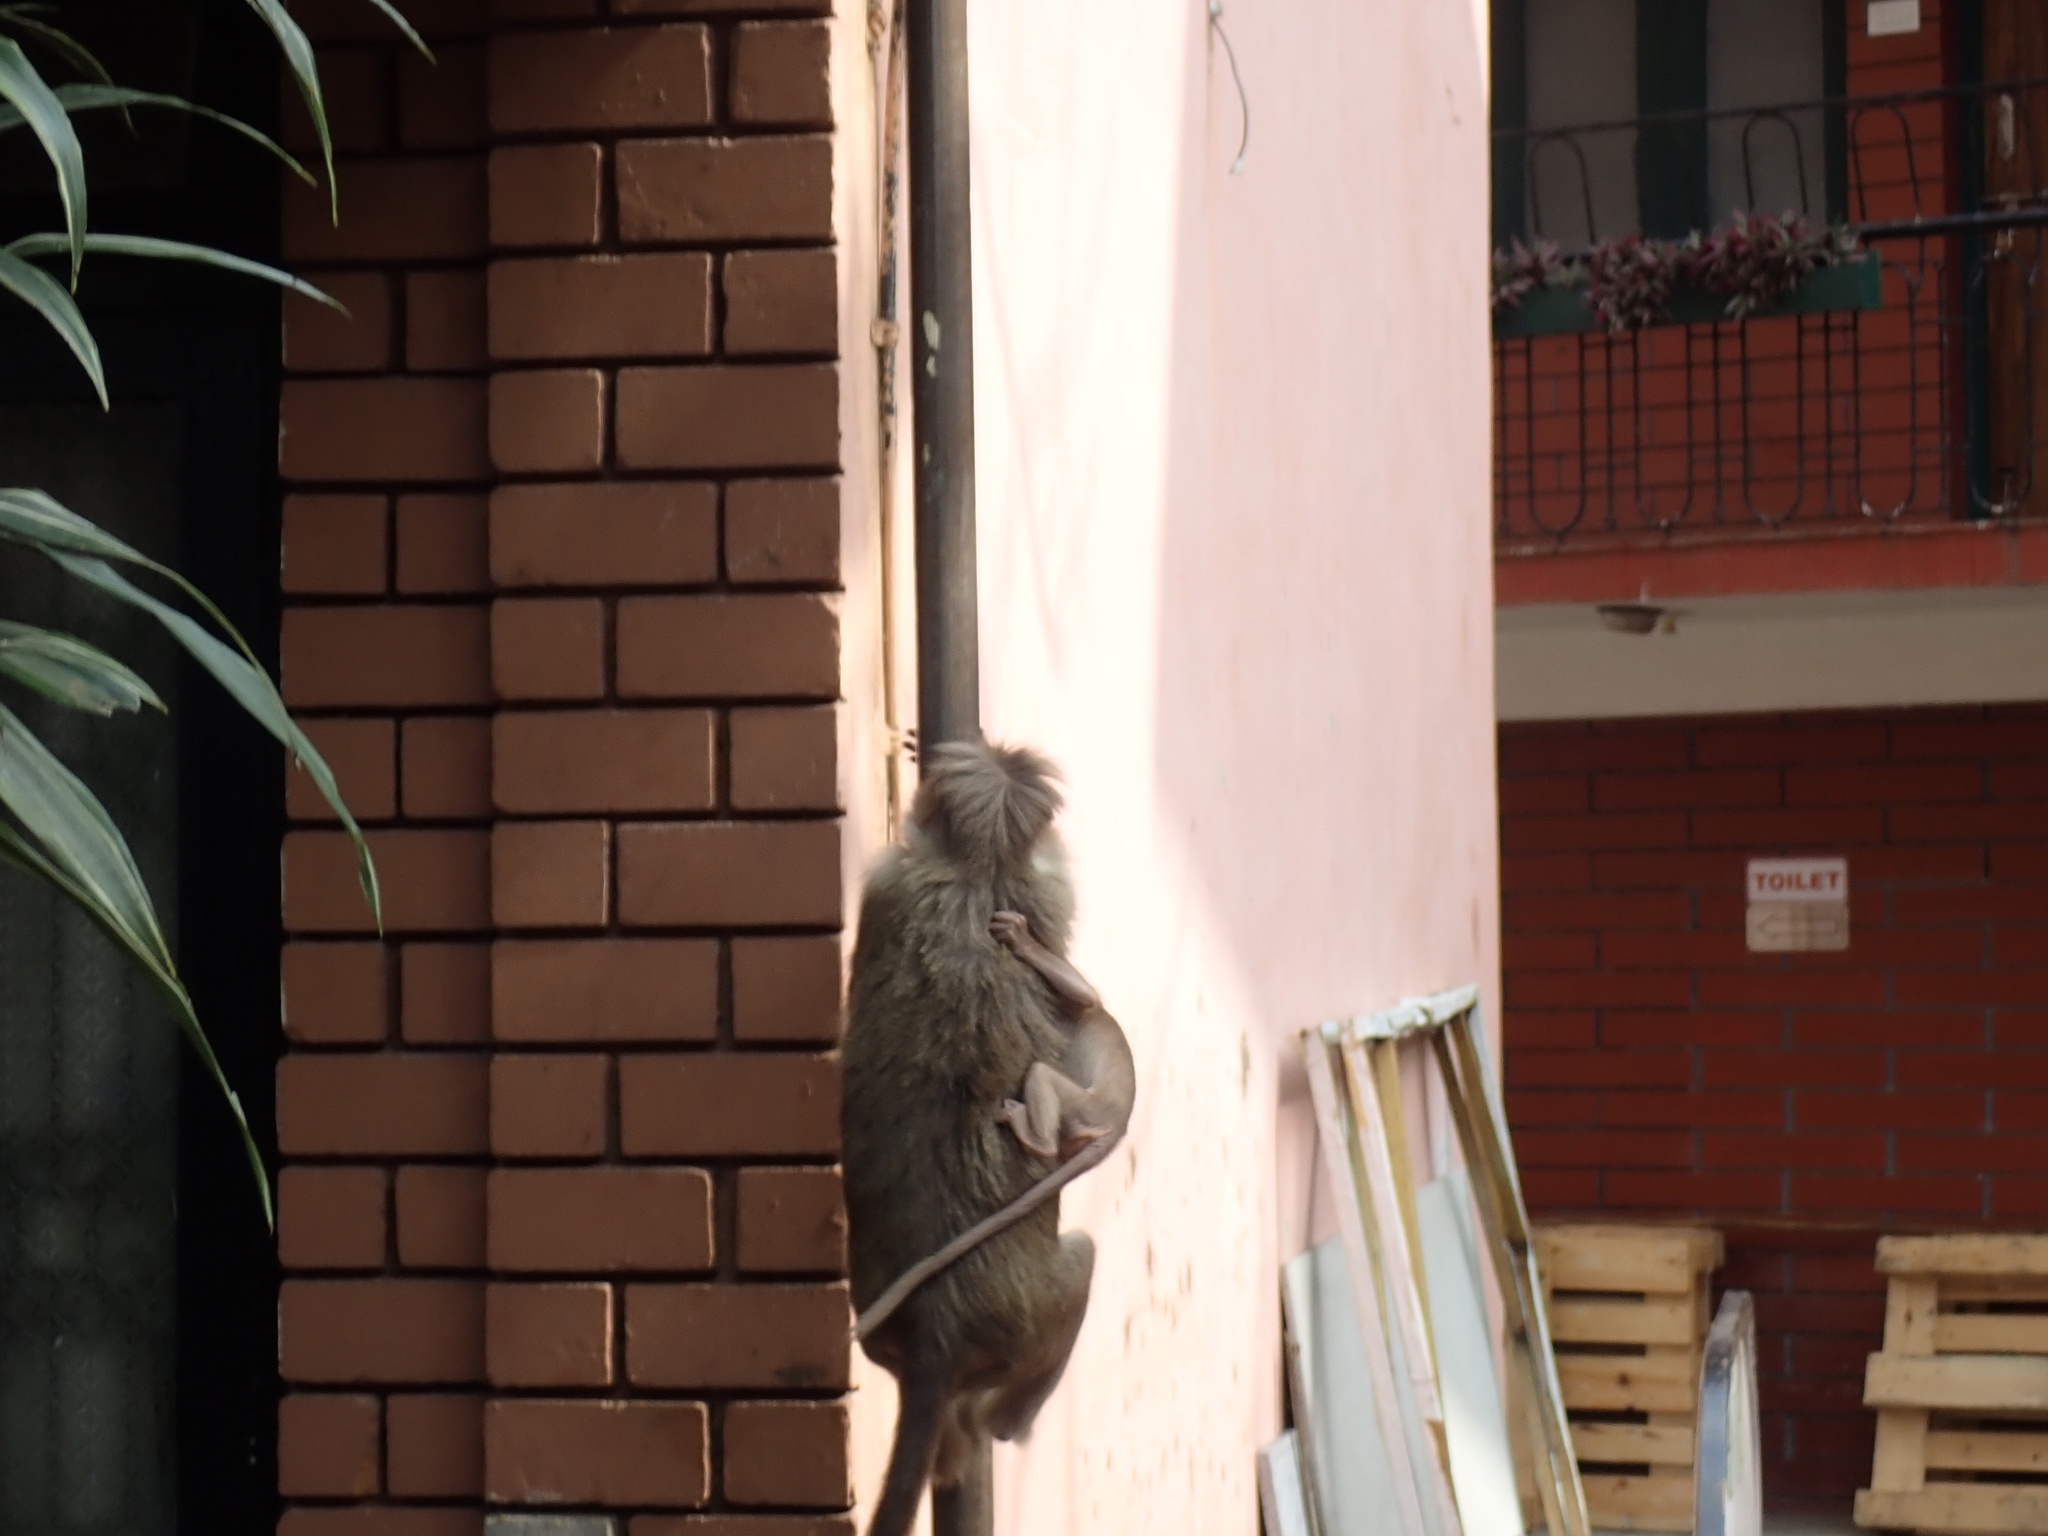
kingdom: Animalia
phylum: Chordata
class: Mammalia
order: Primates
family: Cercopithecidae
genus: Macaca
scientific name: Macaca radiata
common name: Bonnet macaque
